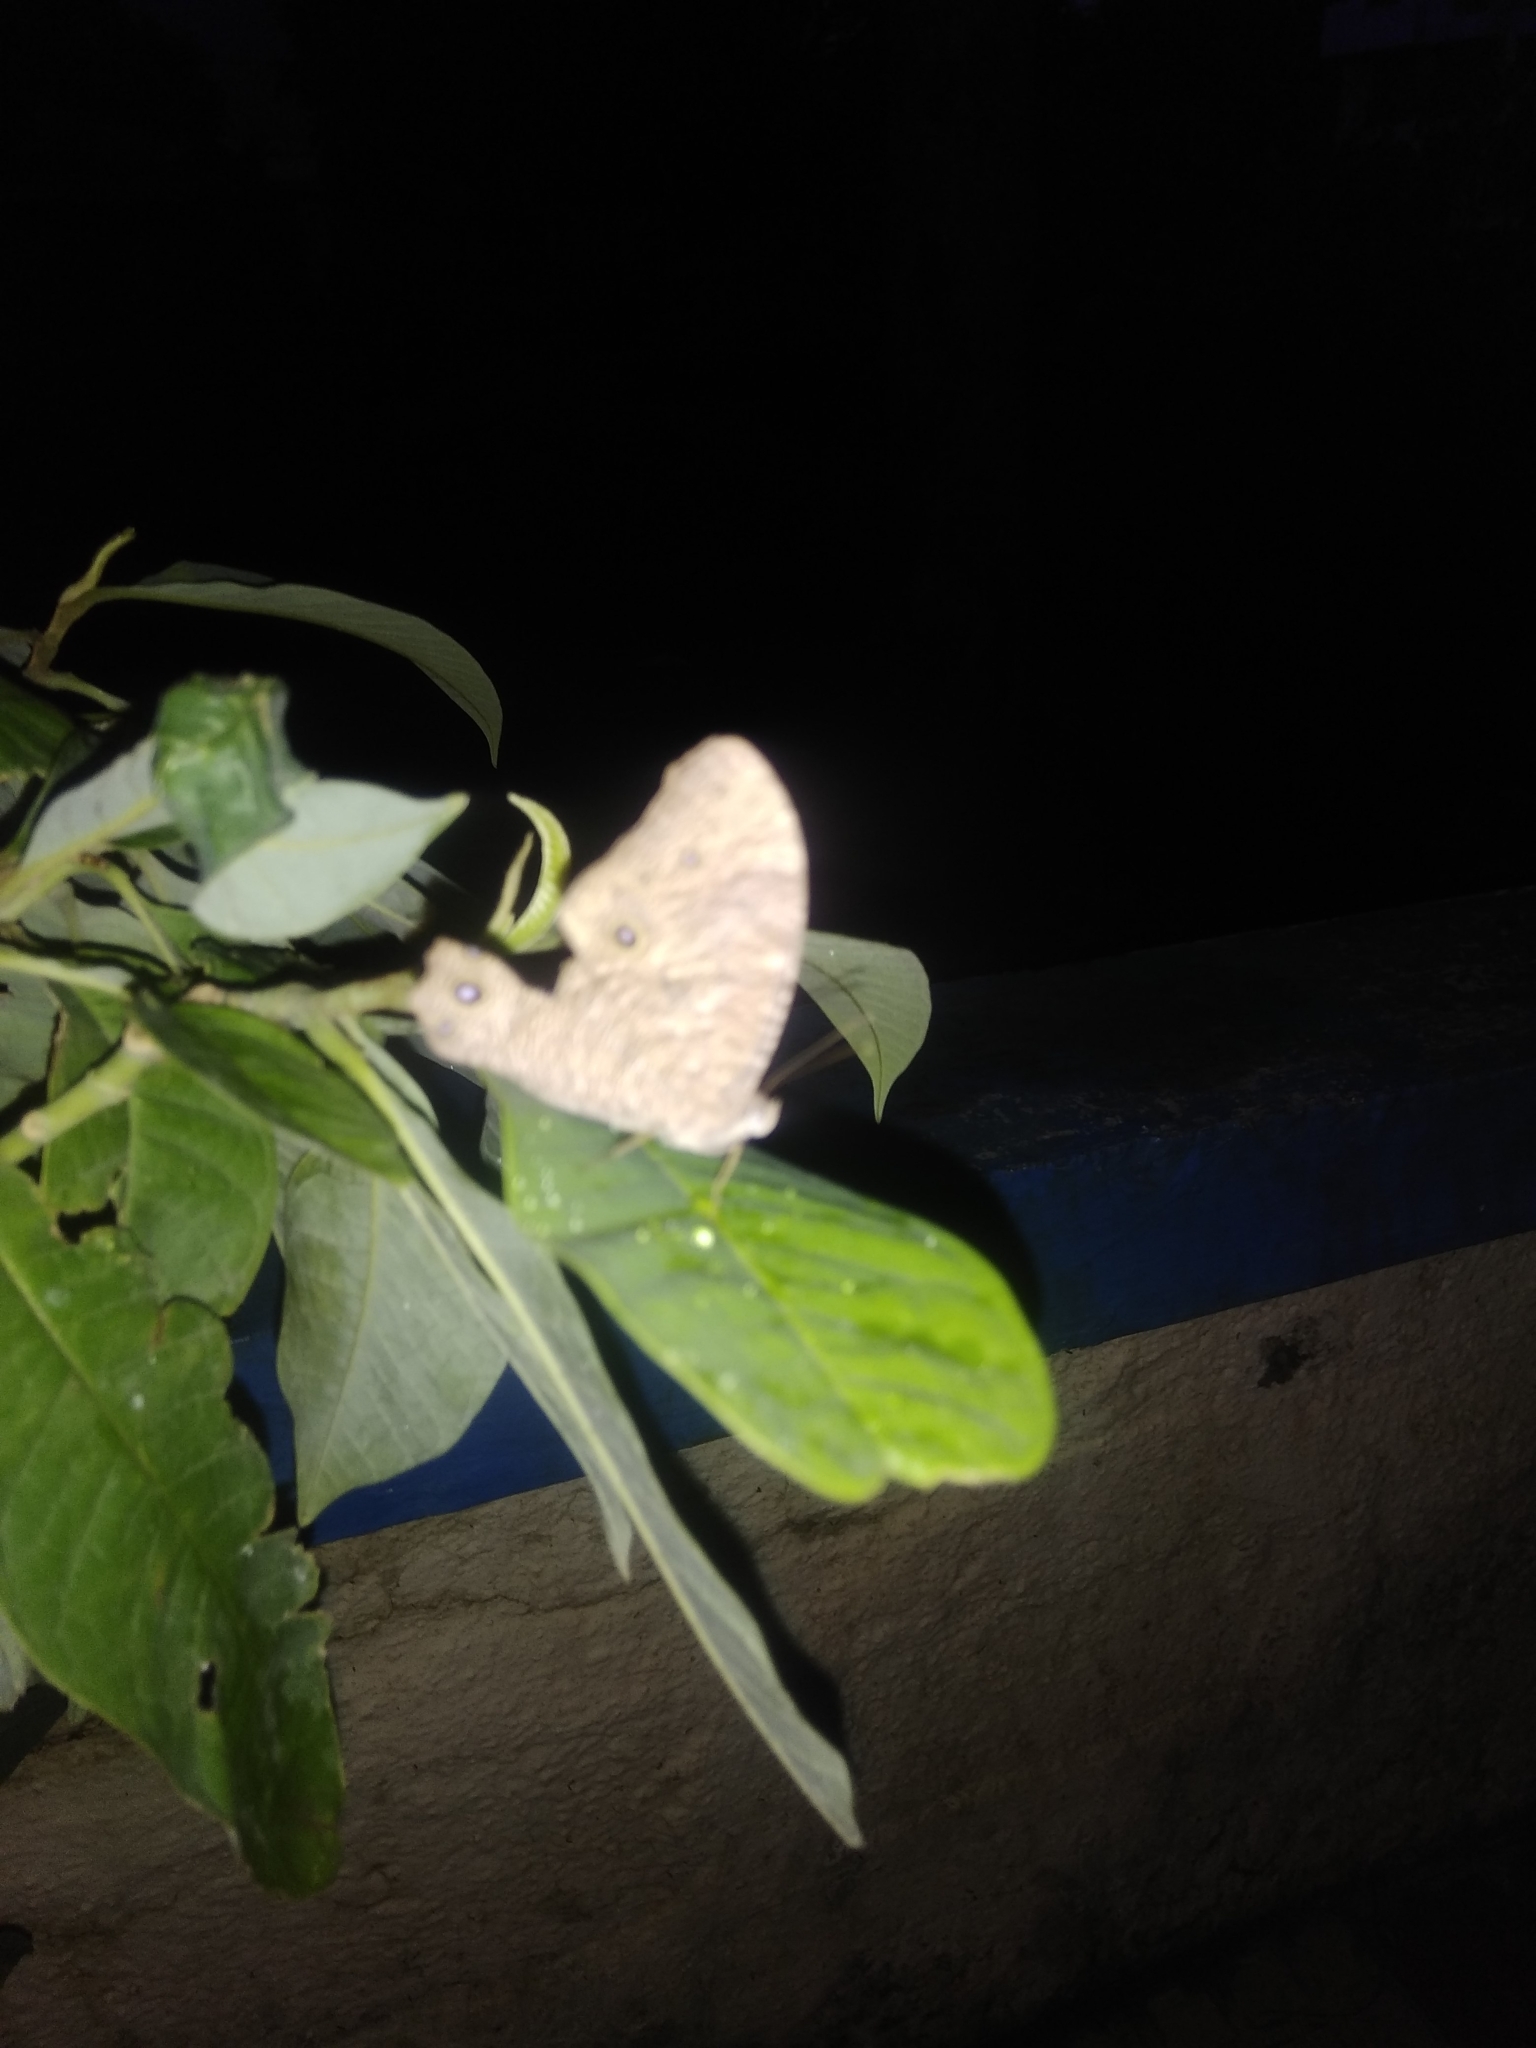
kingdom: Animalia
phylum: Arthropoda
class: Insecta
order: Lepidoptera
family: Nymphalidae
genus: Melanitis
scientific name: Melanitis leda
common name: Twilight brown
